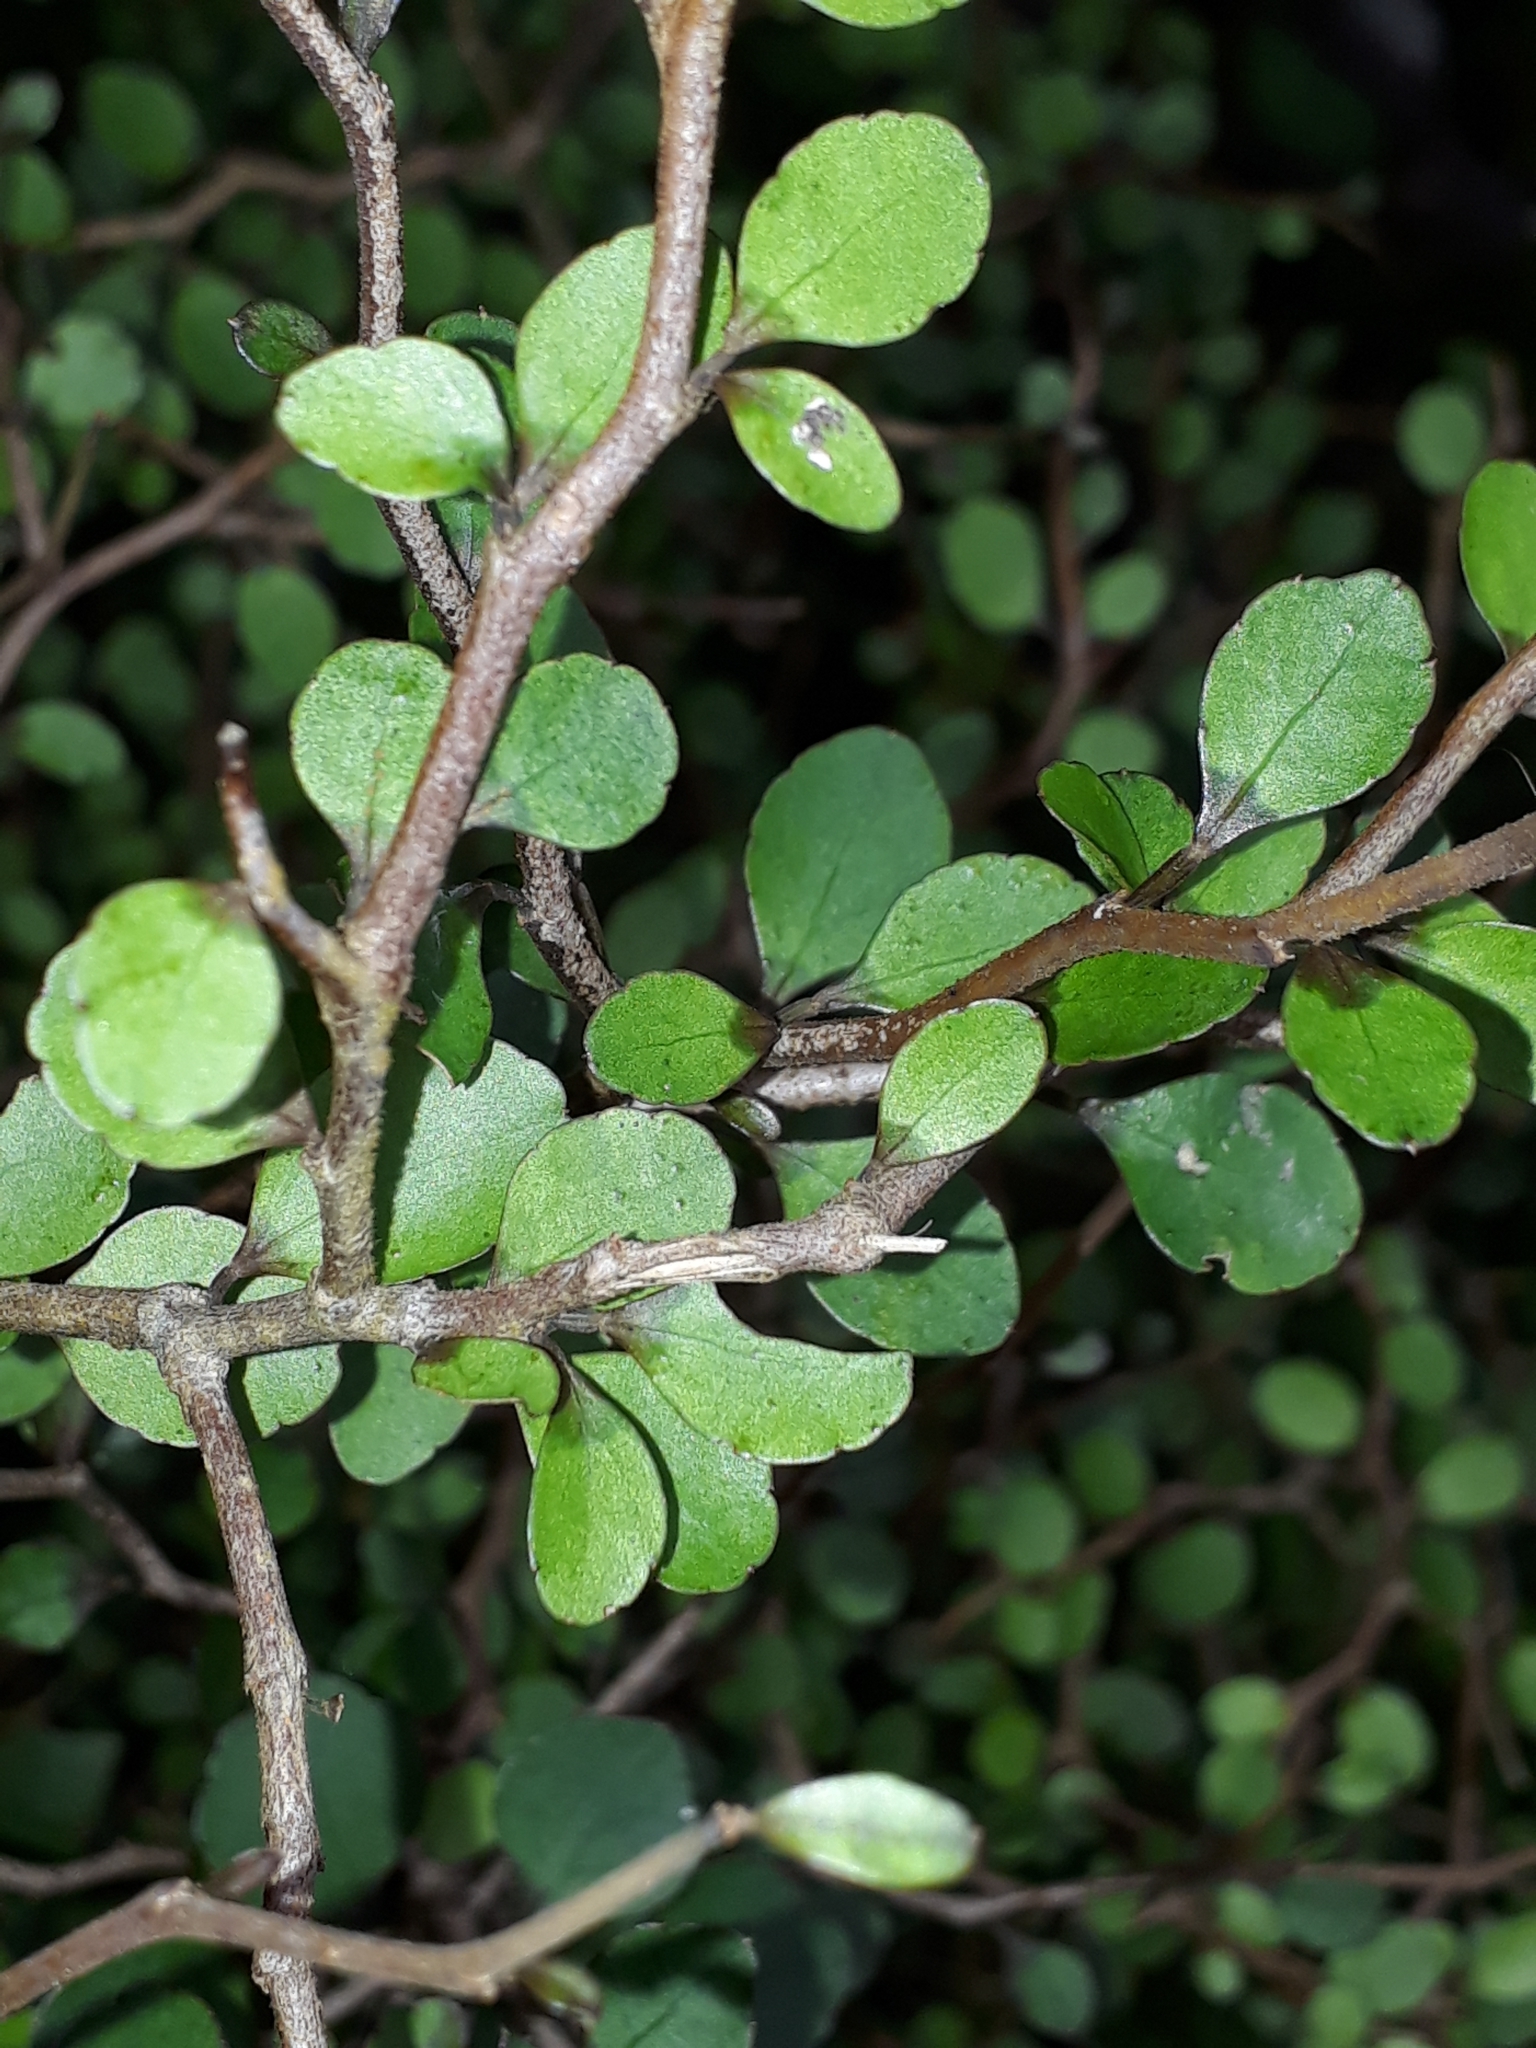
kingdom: Plantae
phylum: Tracheophyta
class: Magnoliopsida
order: Apiales
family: Araliaceae
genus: Raukaua
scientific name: Raukaua anomalus
